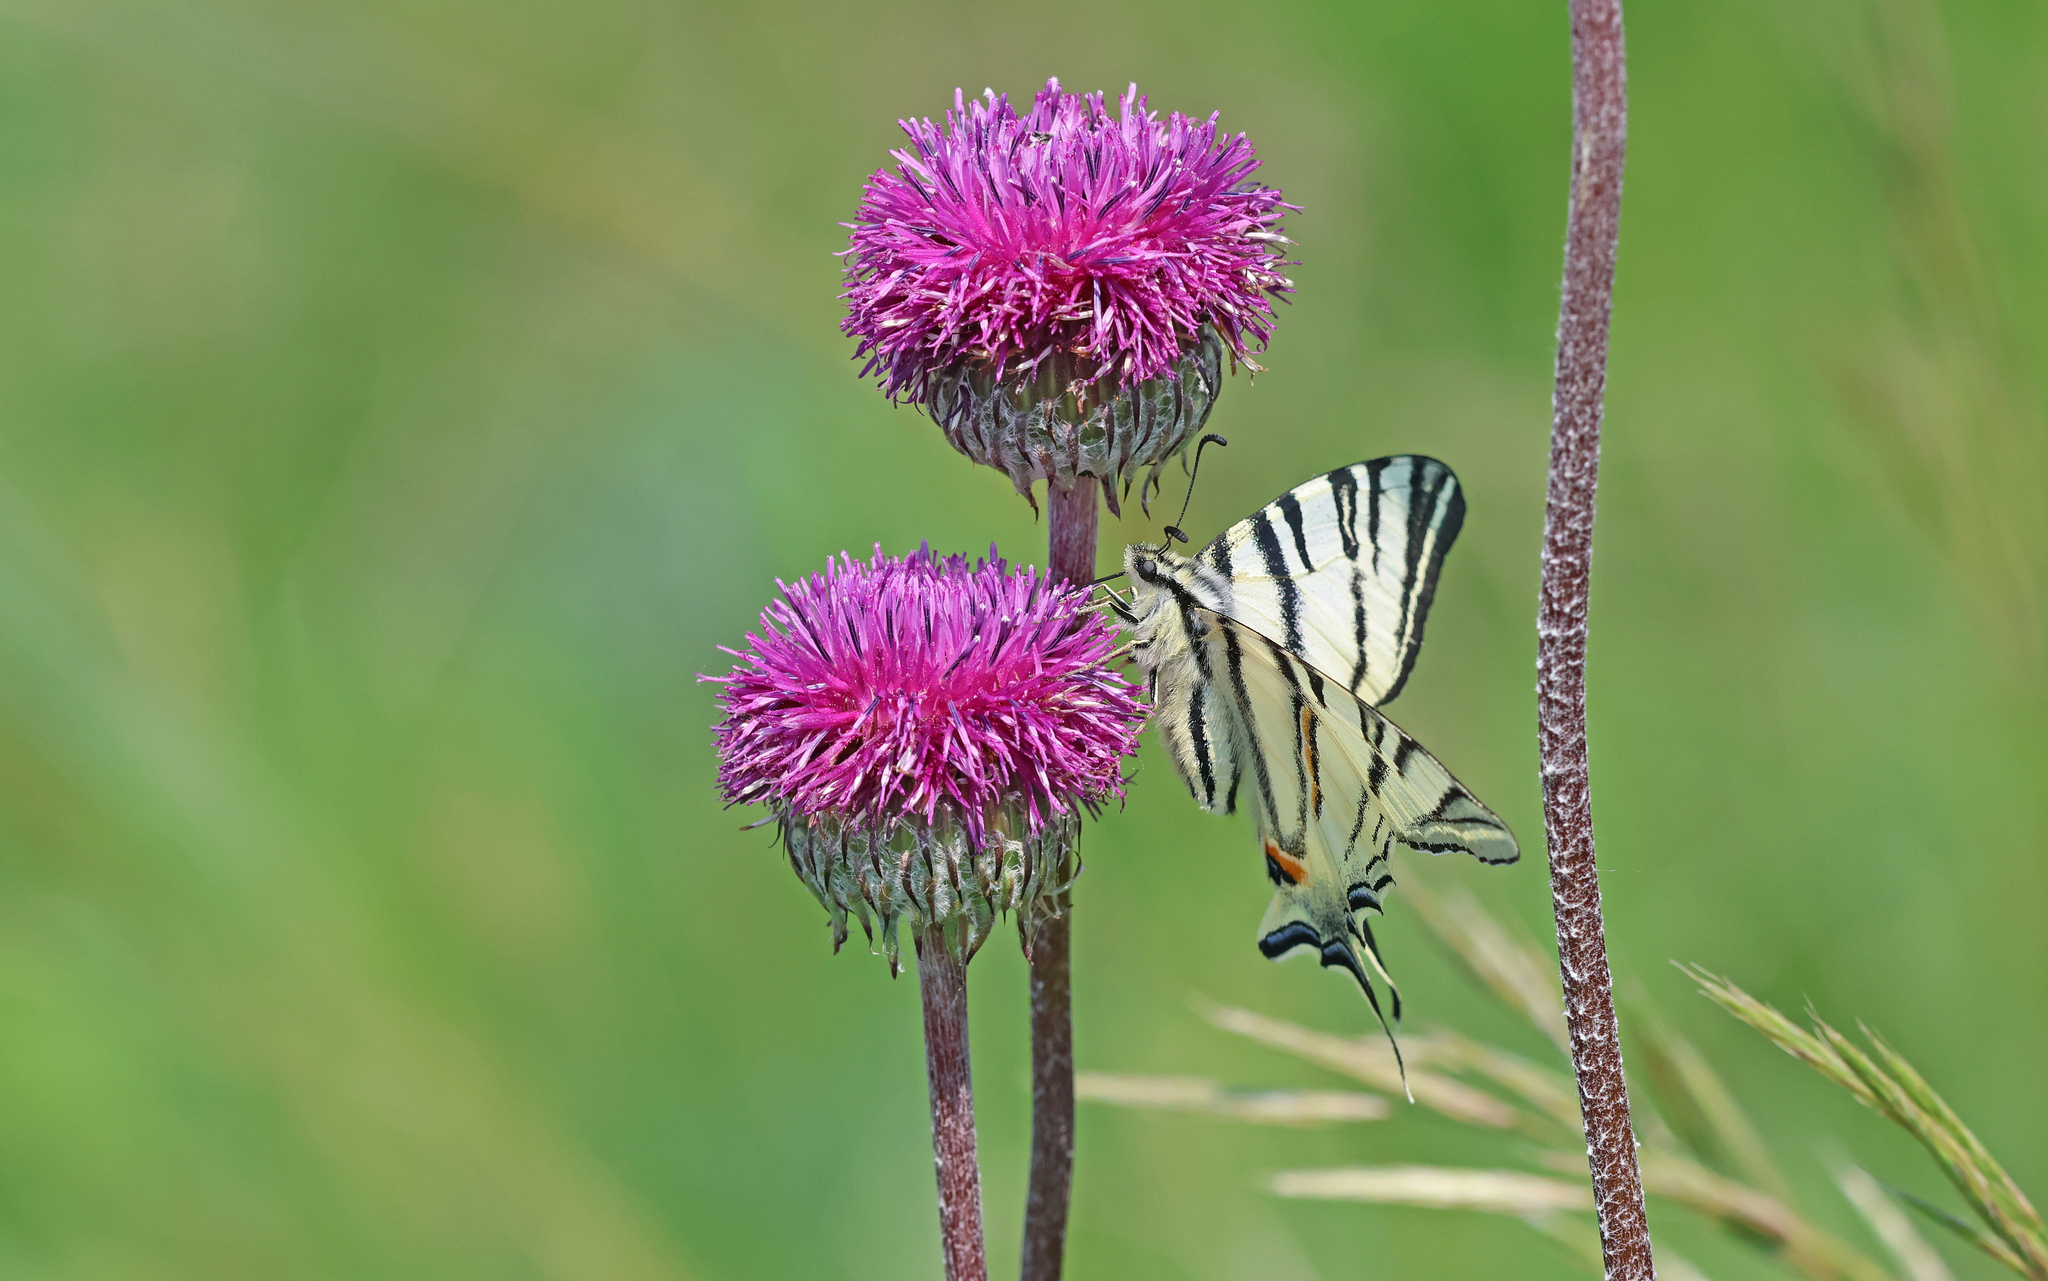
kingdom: Animalia
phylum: Arthropoda
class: Insecta
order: Lepidoptera
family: Papilionidae
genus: Iphiclides
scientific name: Iphiclides podalirius
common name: Scarce swallowtail
